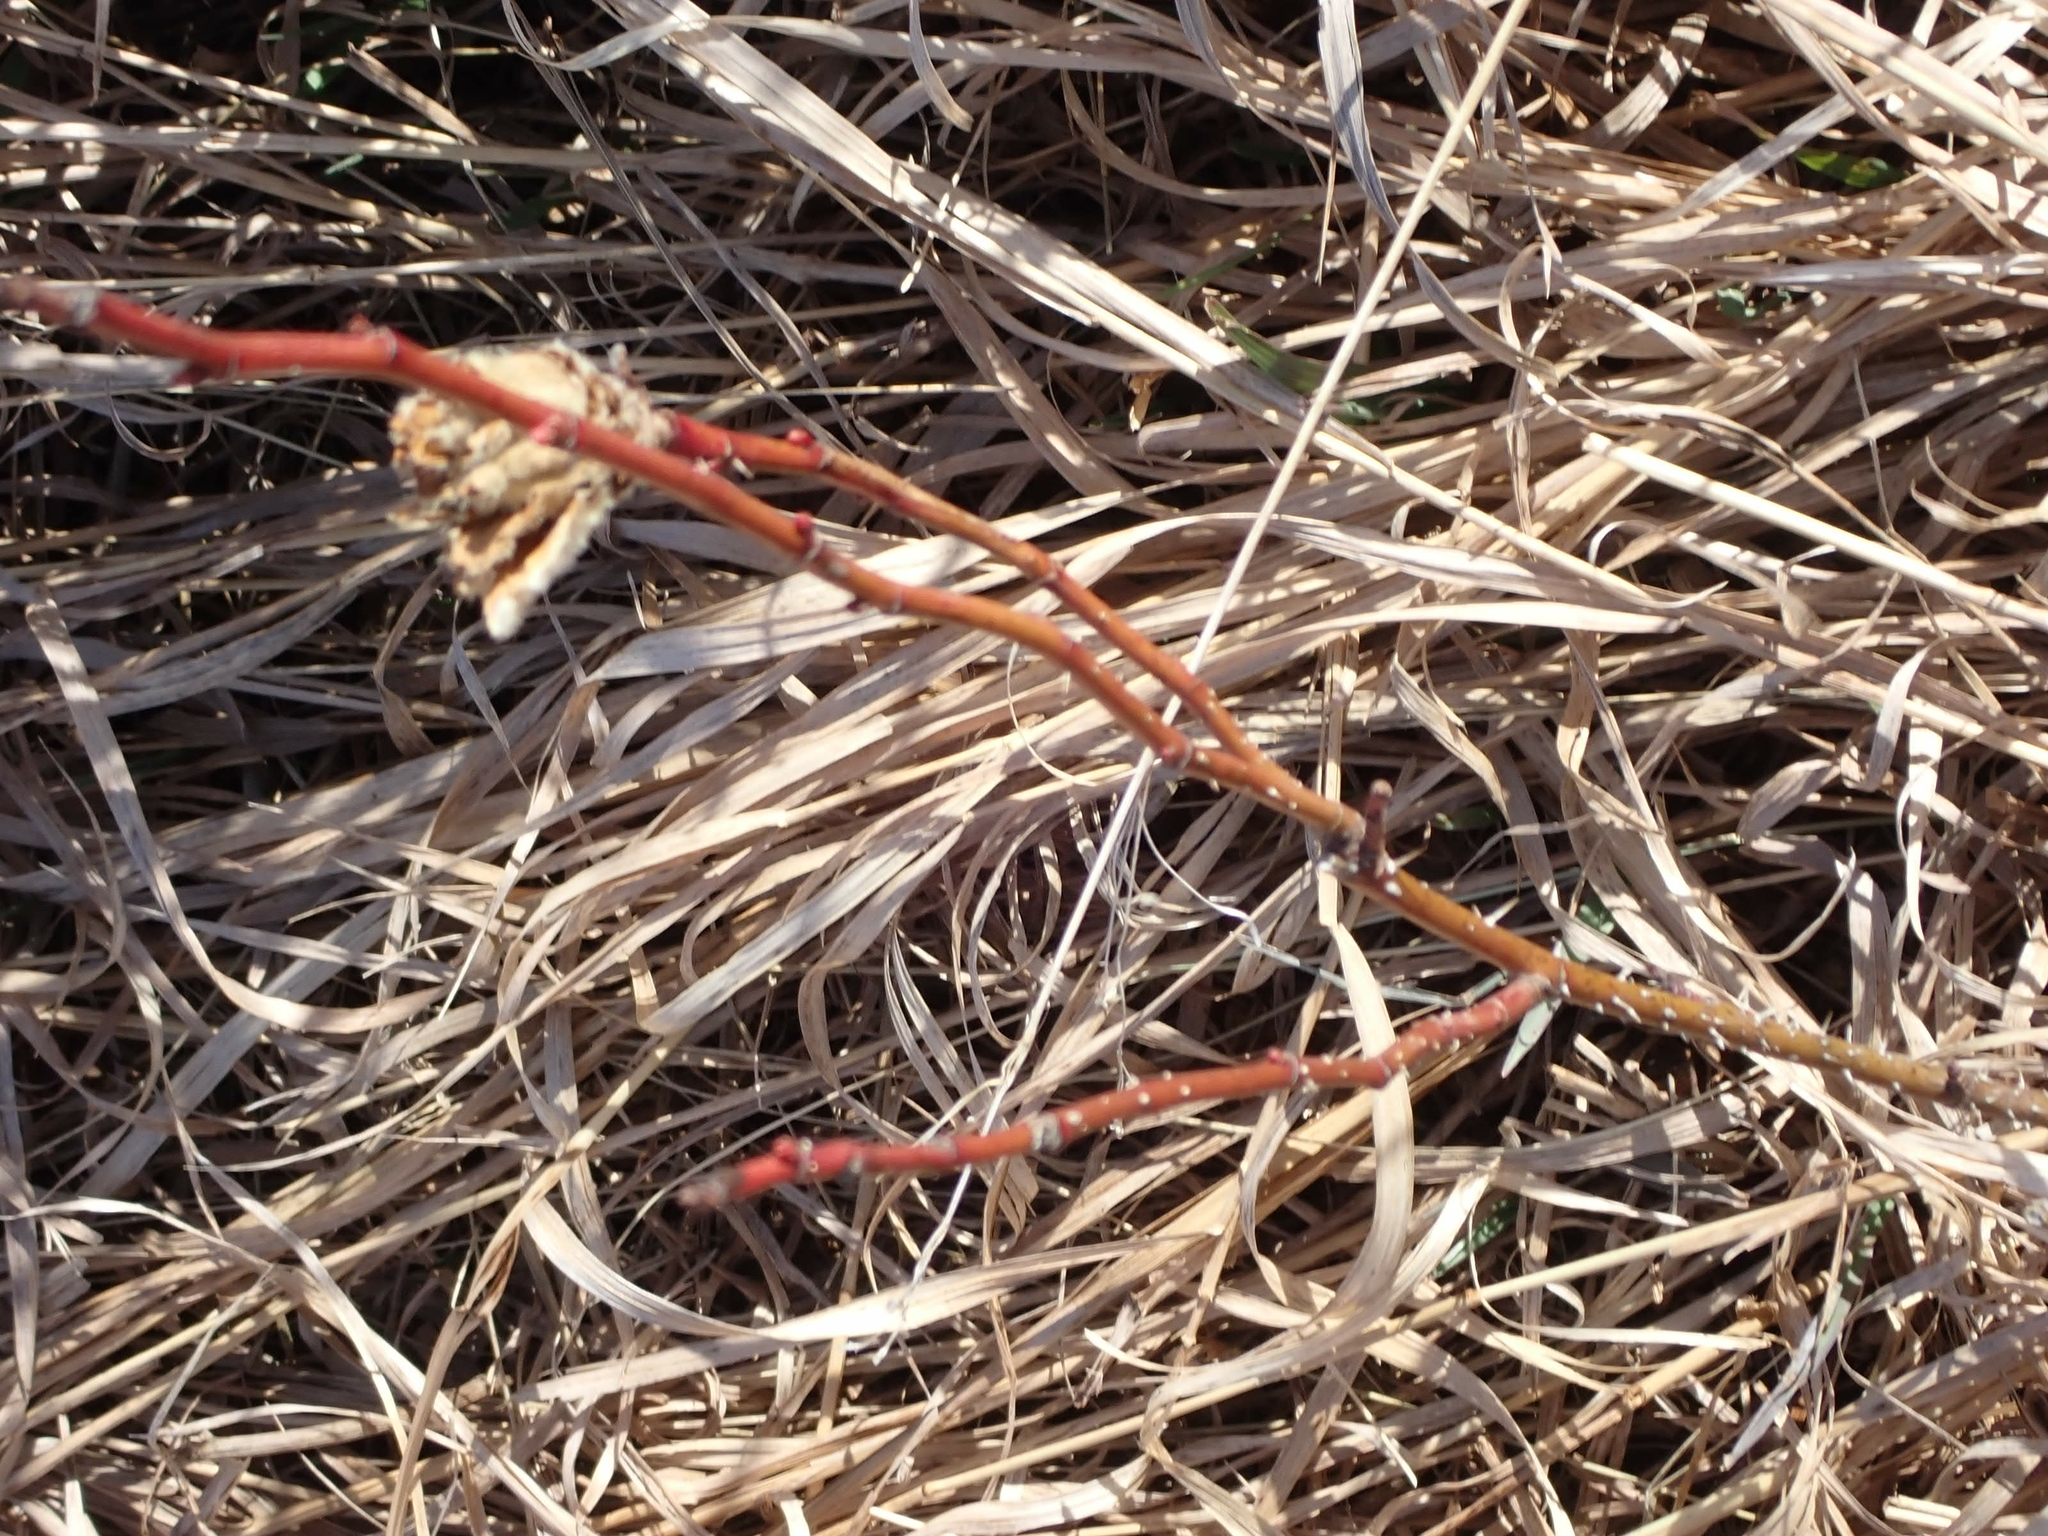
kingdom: Plantae
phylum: Tracheophyta
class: Magnoliopsida
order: Rosales
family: Rosaceae
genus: Rosa
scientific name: Rosa woodsii
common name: Woods's rose
